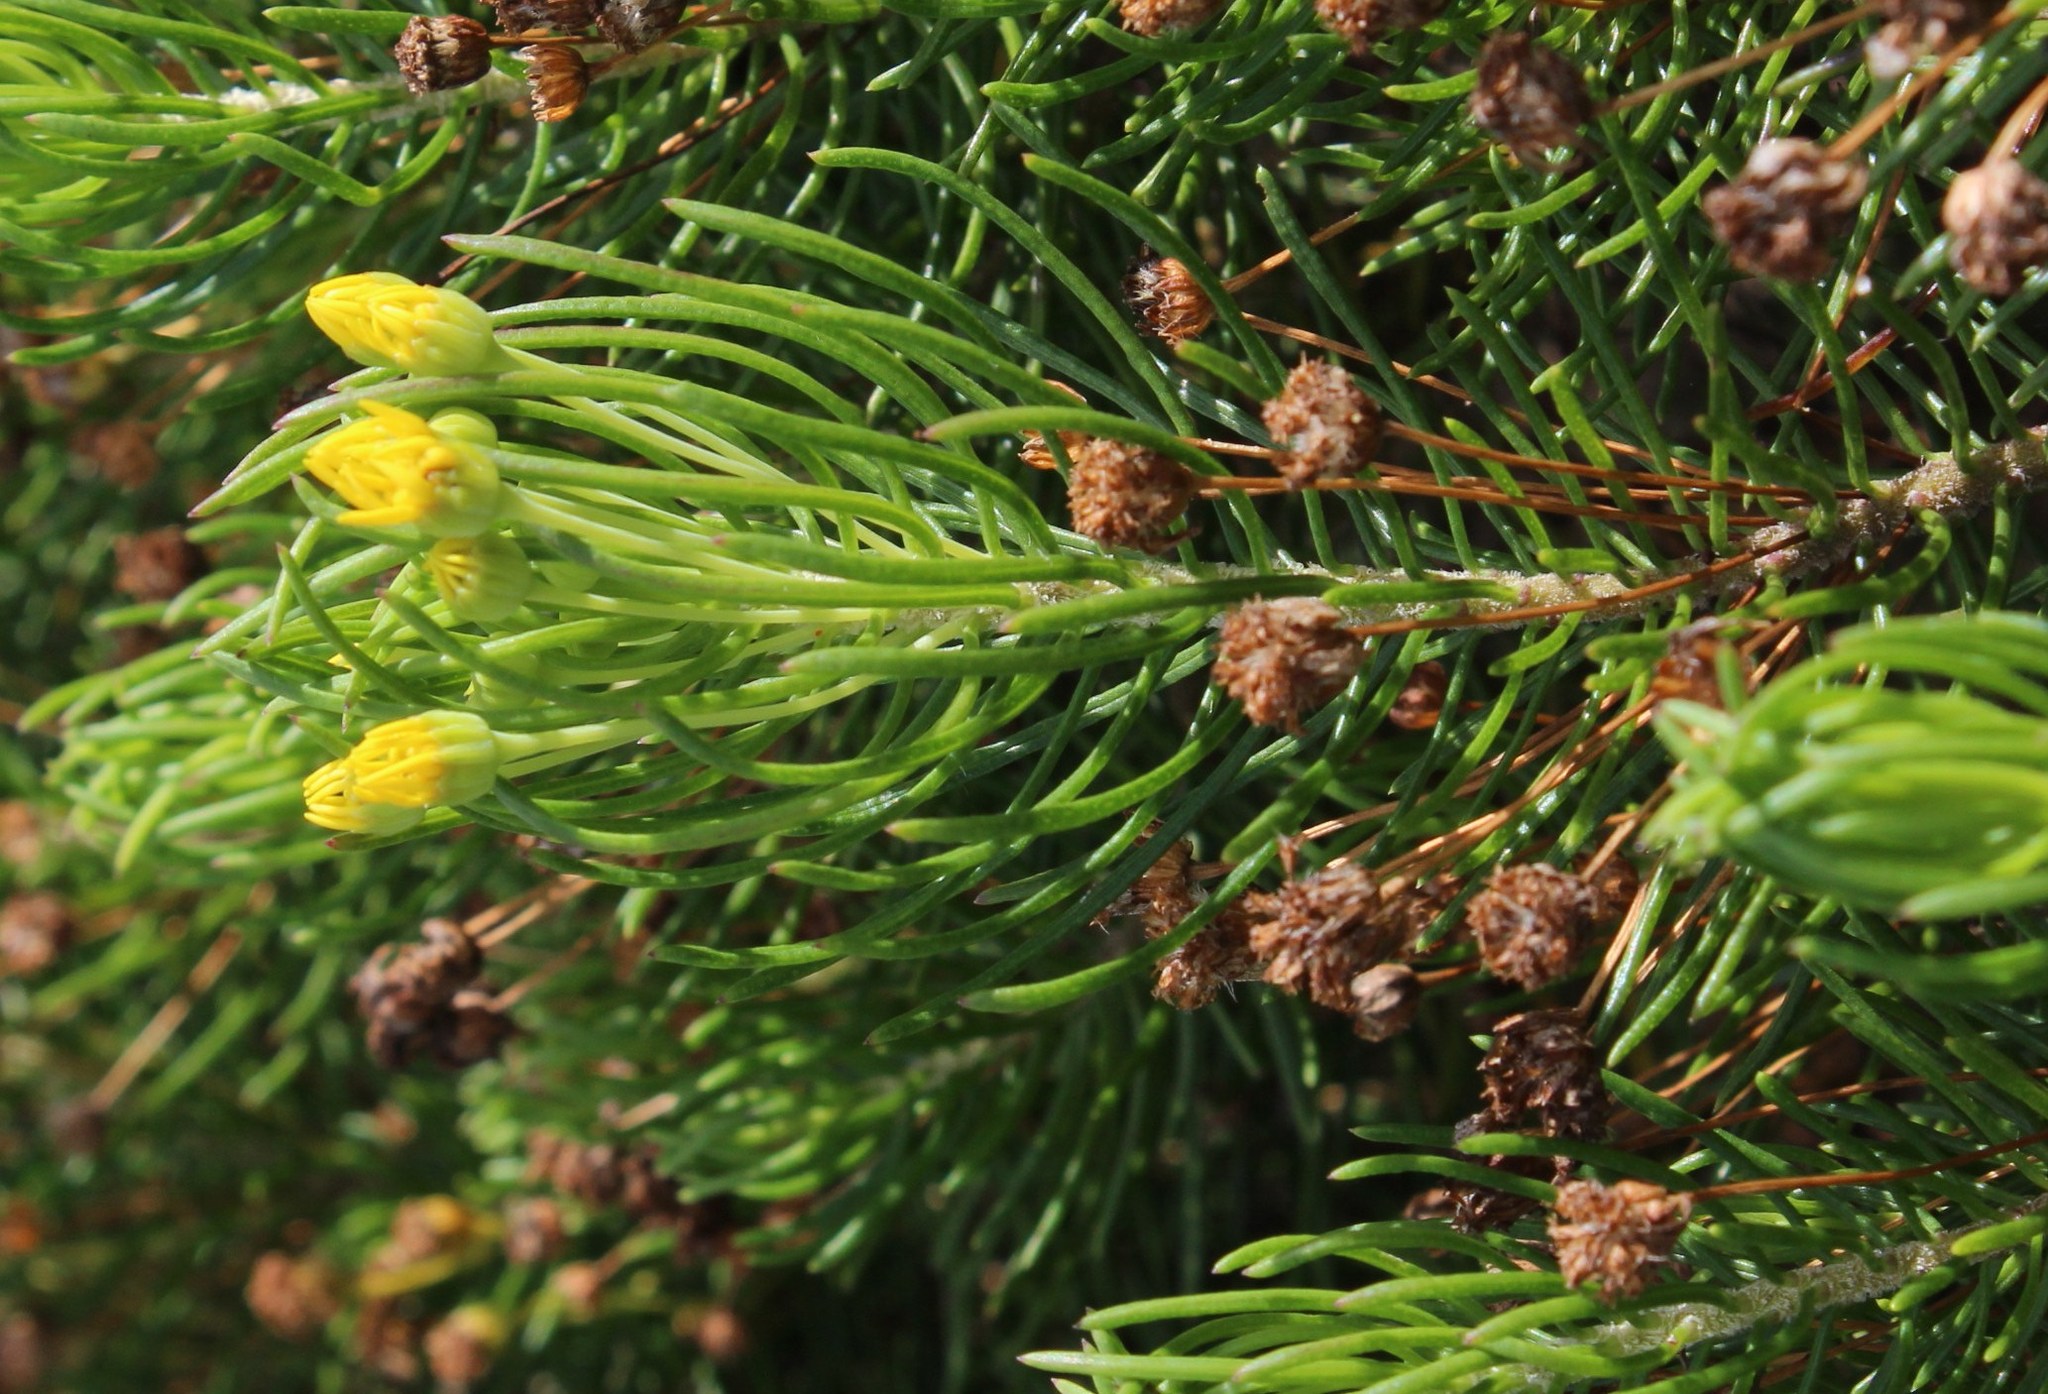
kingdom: Plantae
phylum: Tracheophyta
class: Magnoliopsida
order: Asterales
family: Asteraceae
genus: Euryops
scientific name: Euryops linifolius
